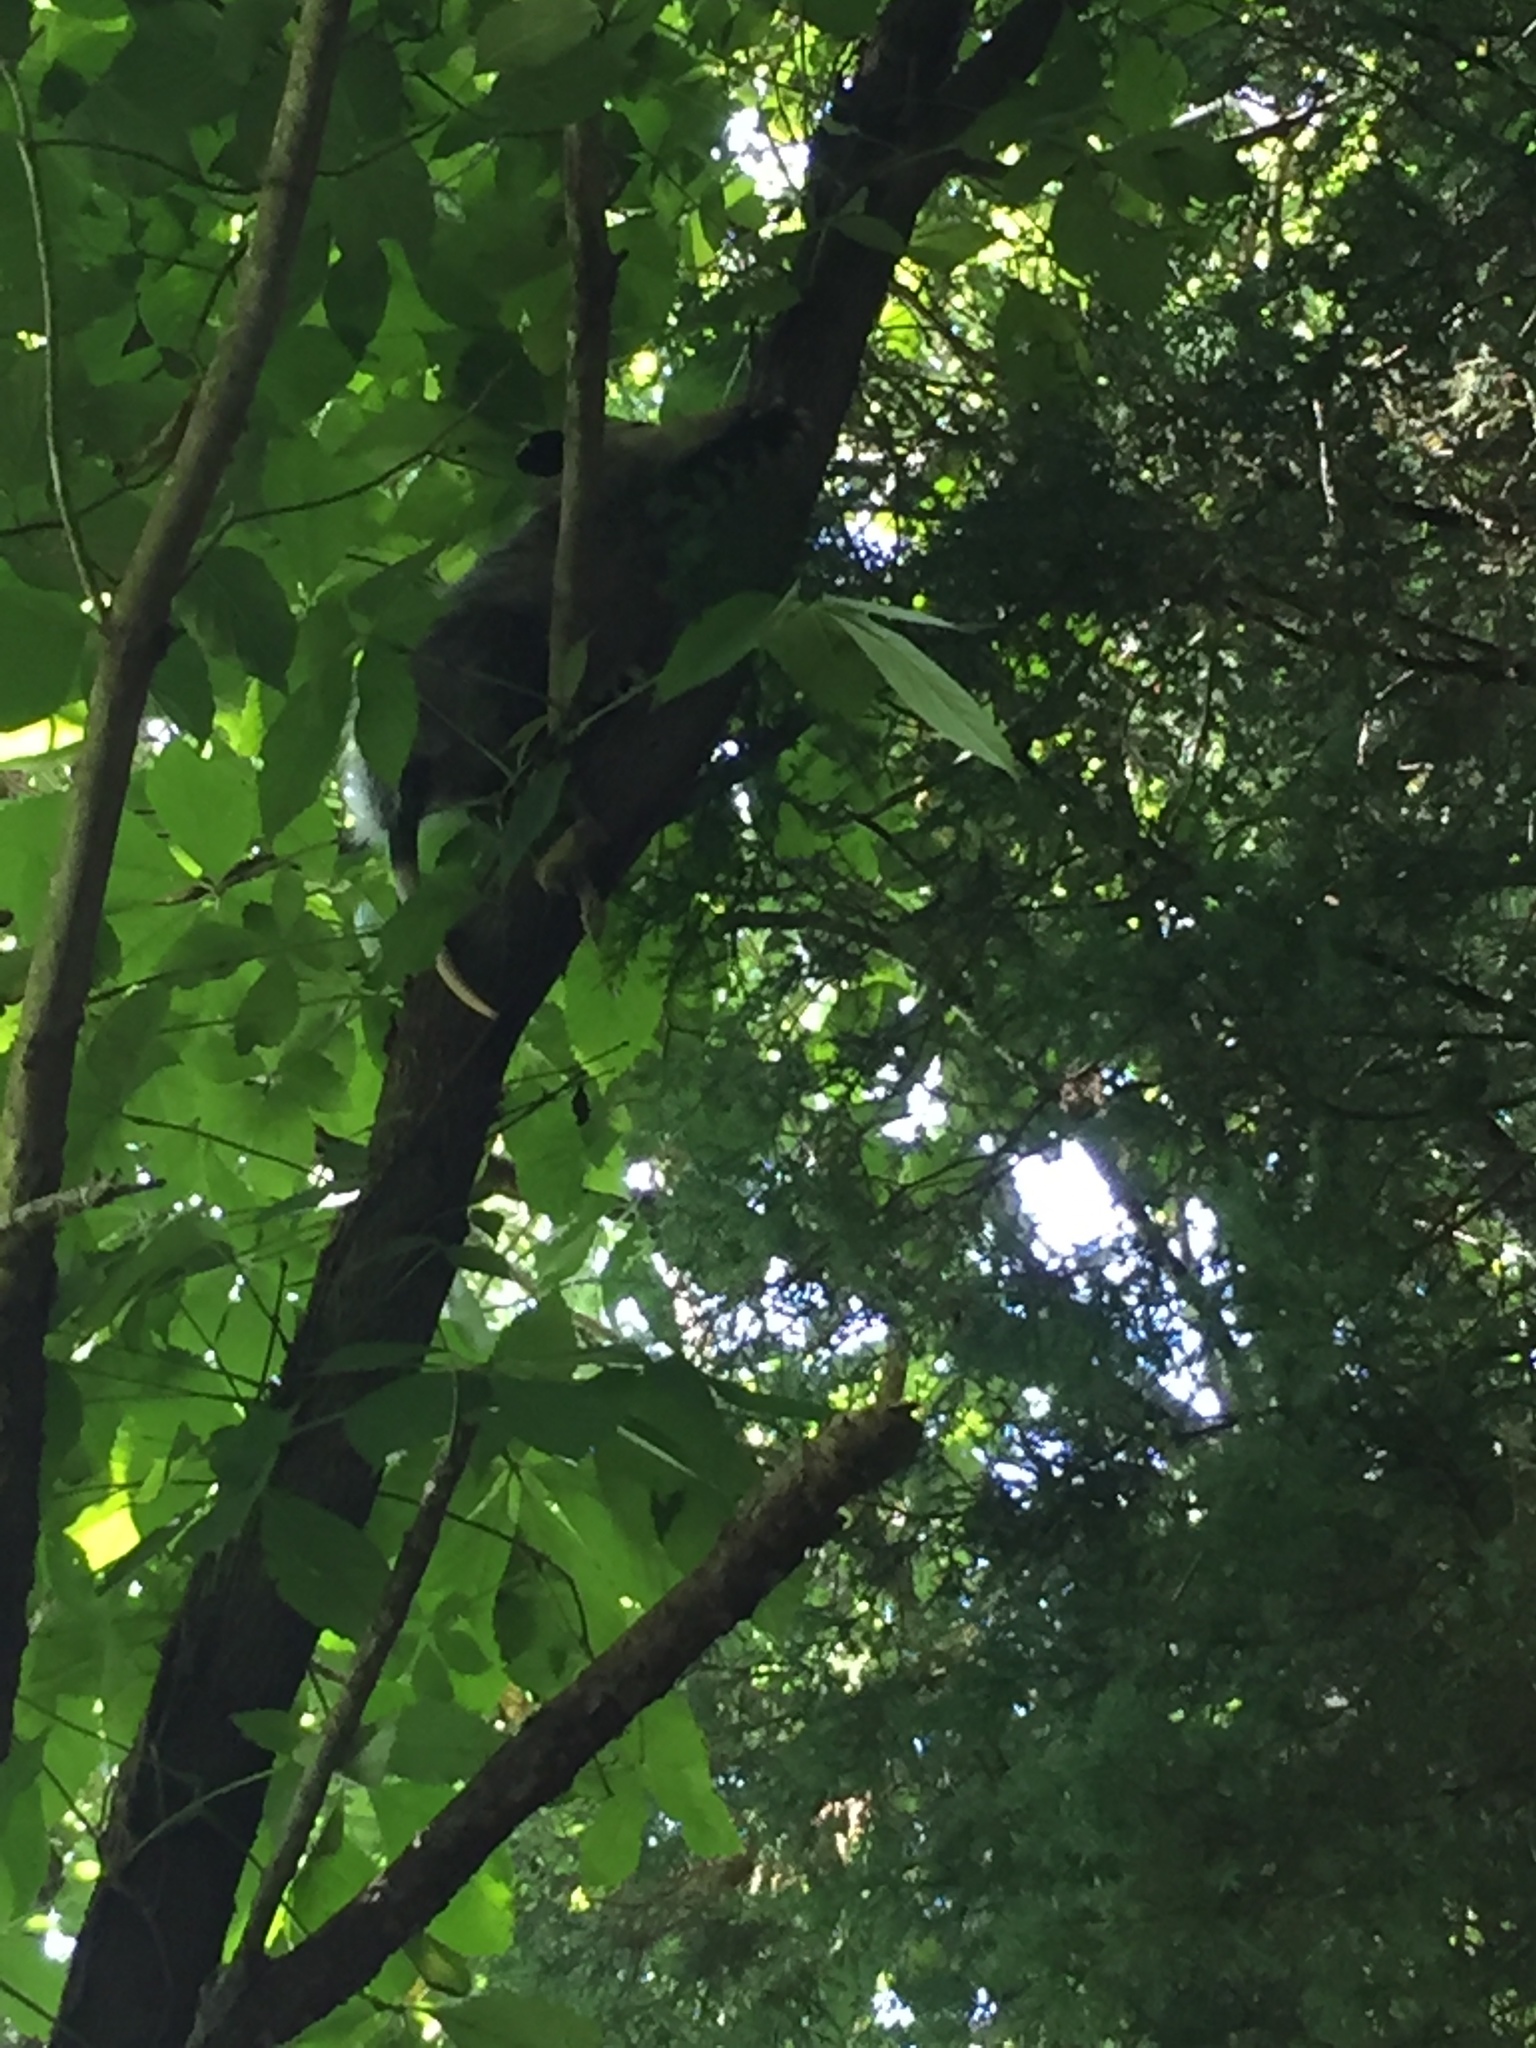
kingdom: Animalia
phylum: Chordata
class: Mammalia
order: Didelphimorphia
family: Didelphidae
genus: Didelphis
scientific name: Didelphis virginiana
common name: Virginia opossum
